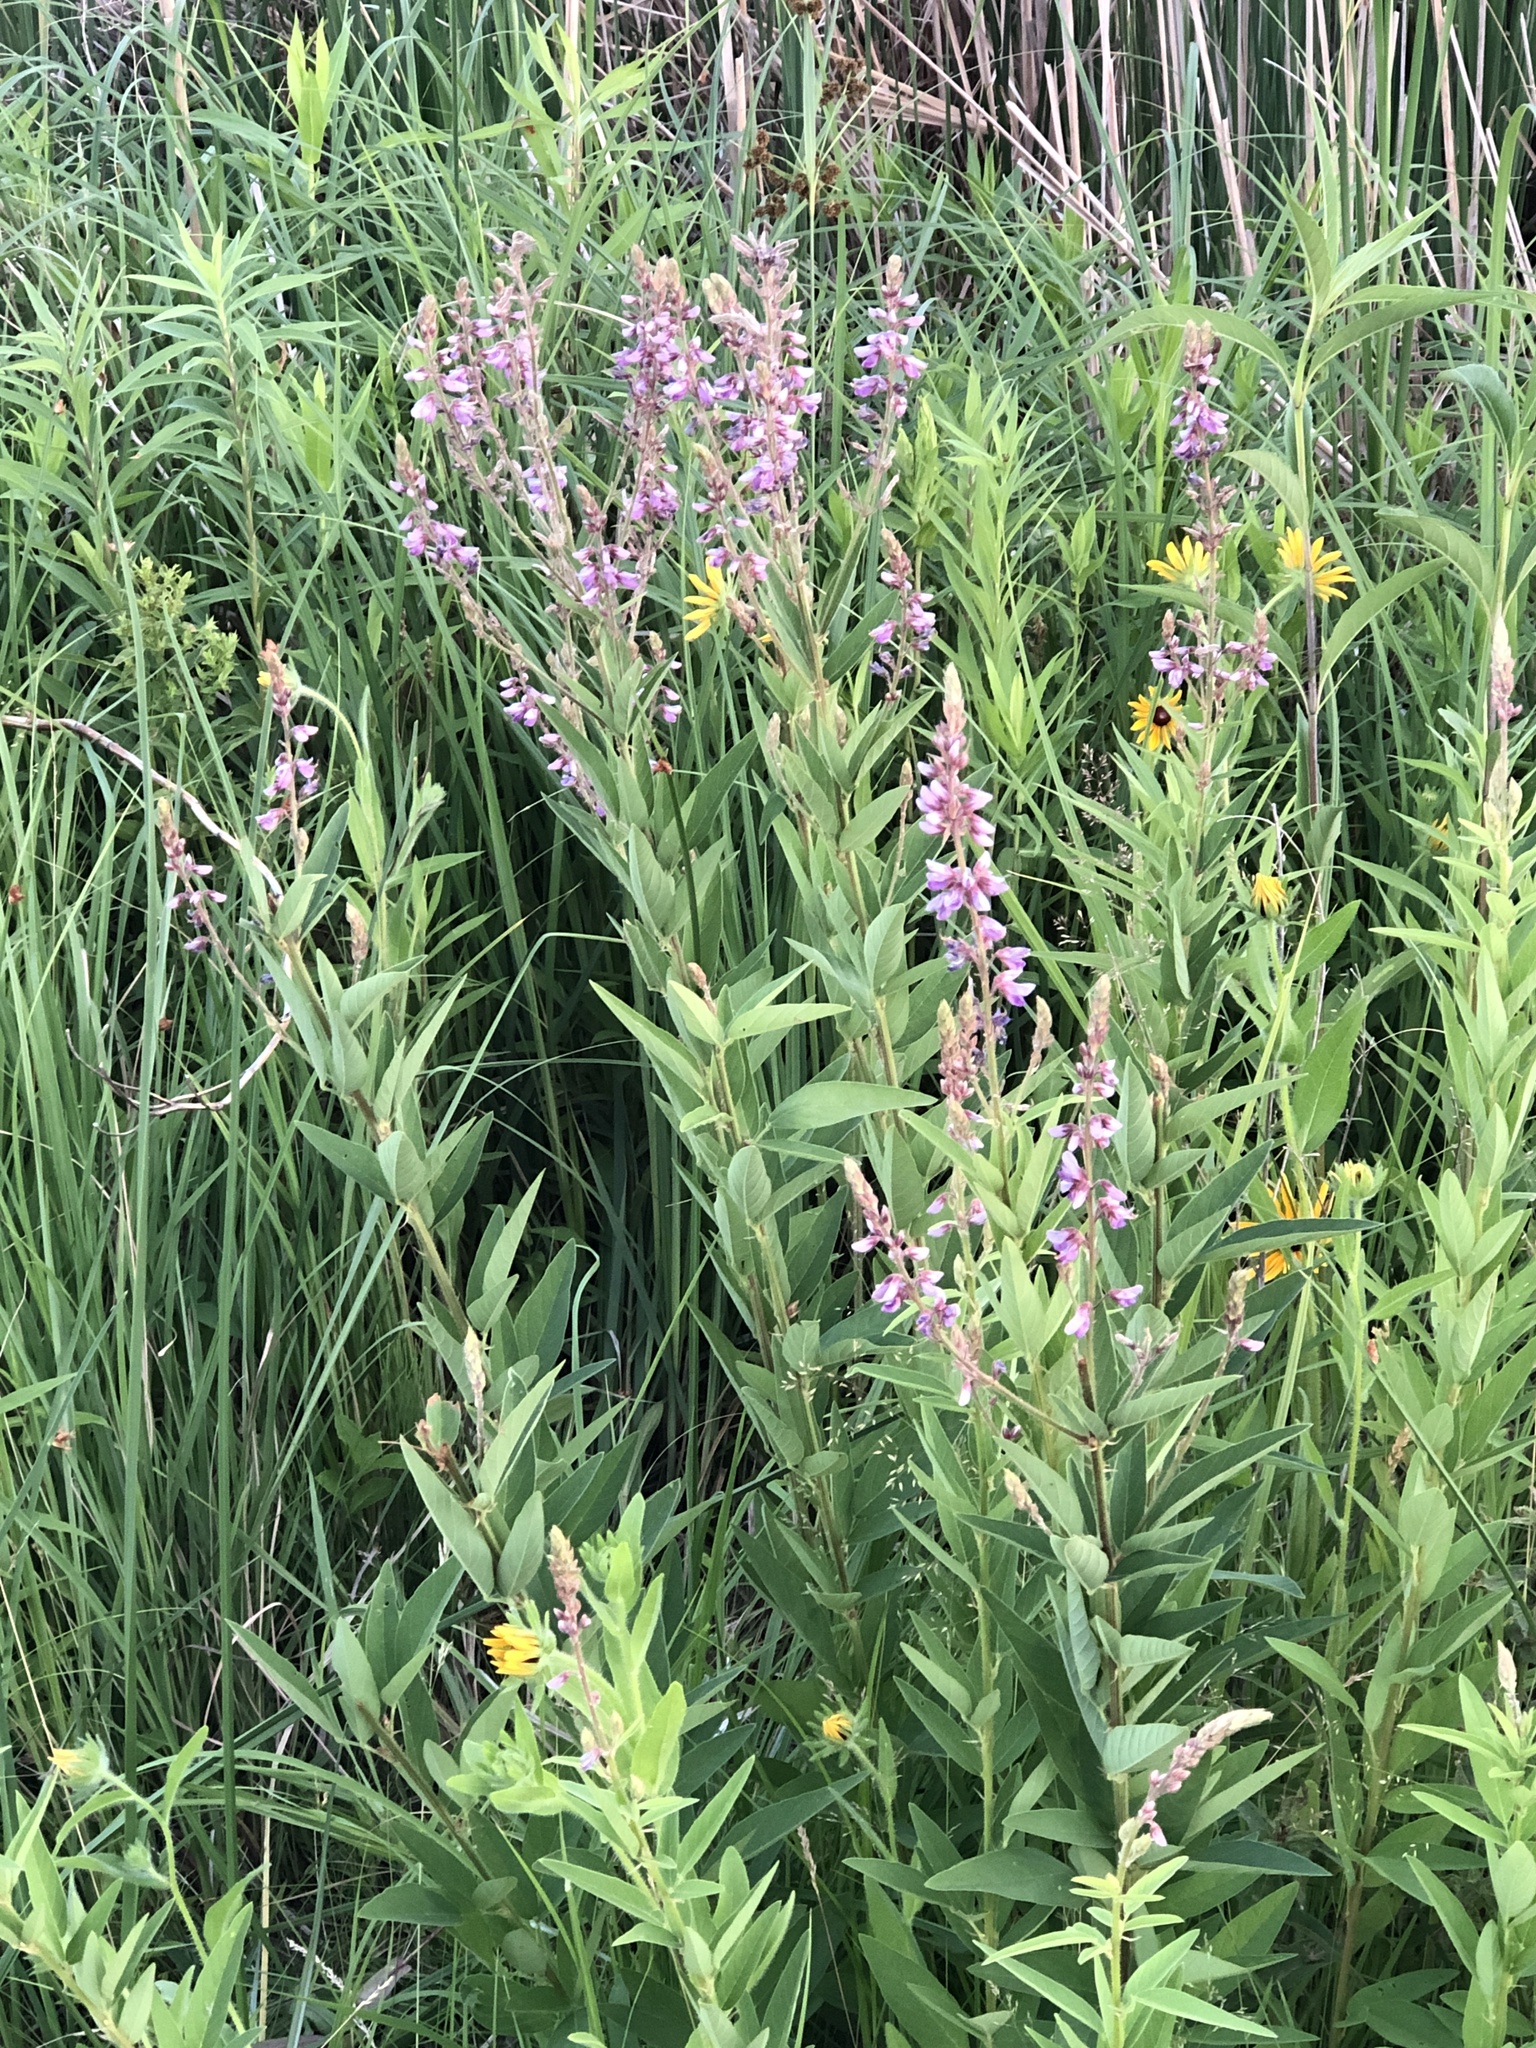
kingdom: Plantae
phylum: Tracheophyta
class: Magnoliopsida
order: Fabales
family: Fabaceae
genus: Desmodium
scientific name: Desmodium canadense
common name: Canada tick-trefoil
